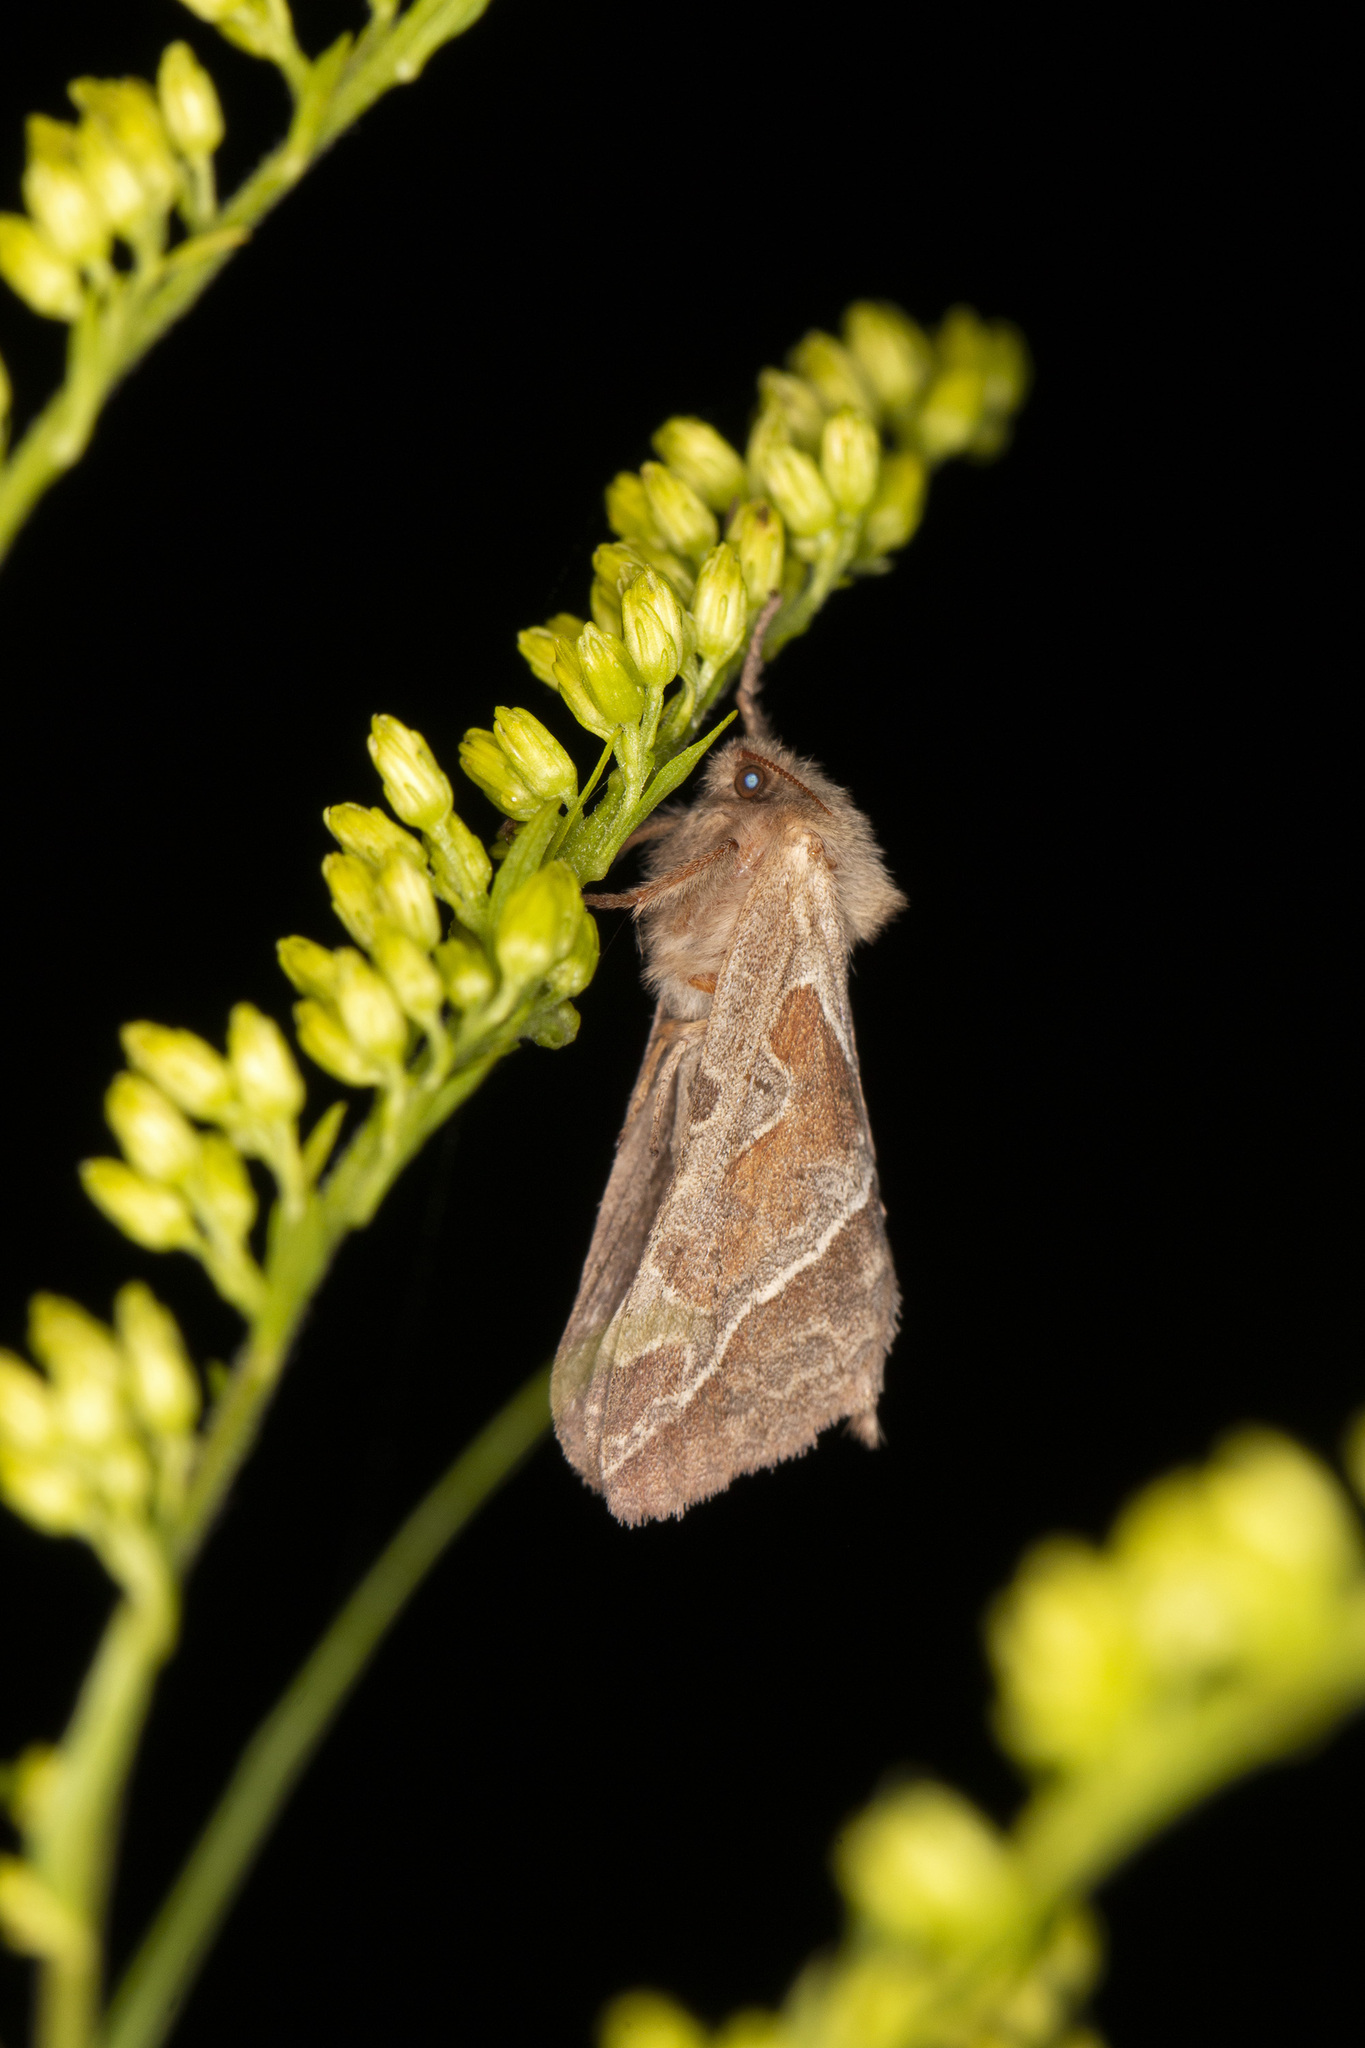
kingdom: Animalia
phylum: Arthropoda
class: Insecta
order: Lepidoptera
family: Hepialidae
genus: Triodia
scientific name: Triodia sylvina
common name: Orange swift
